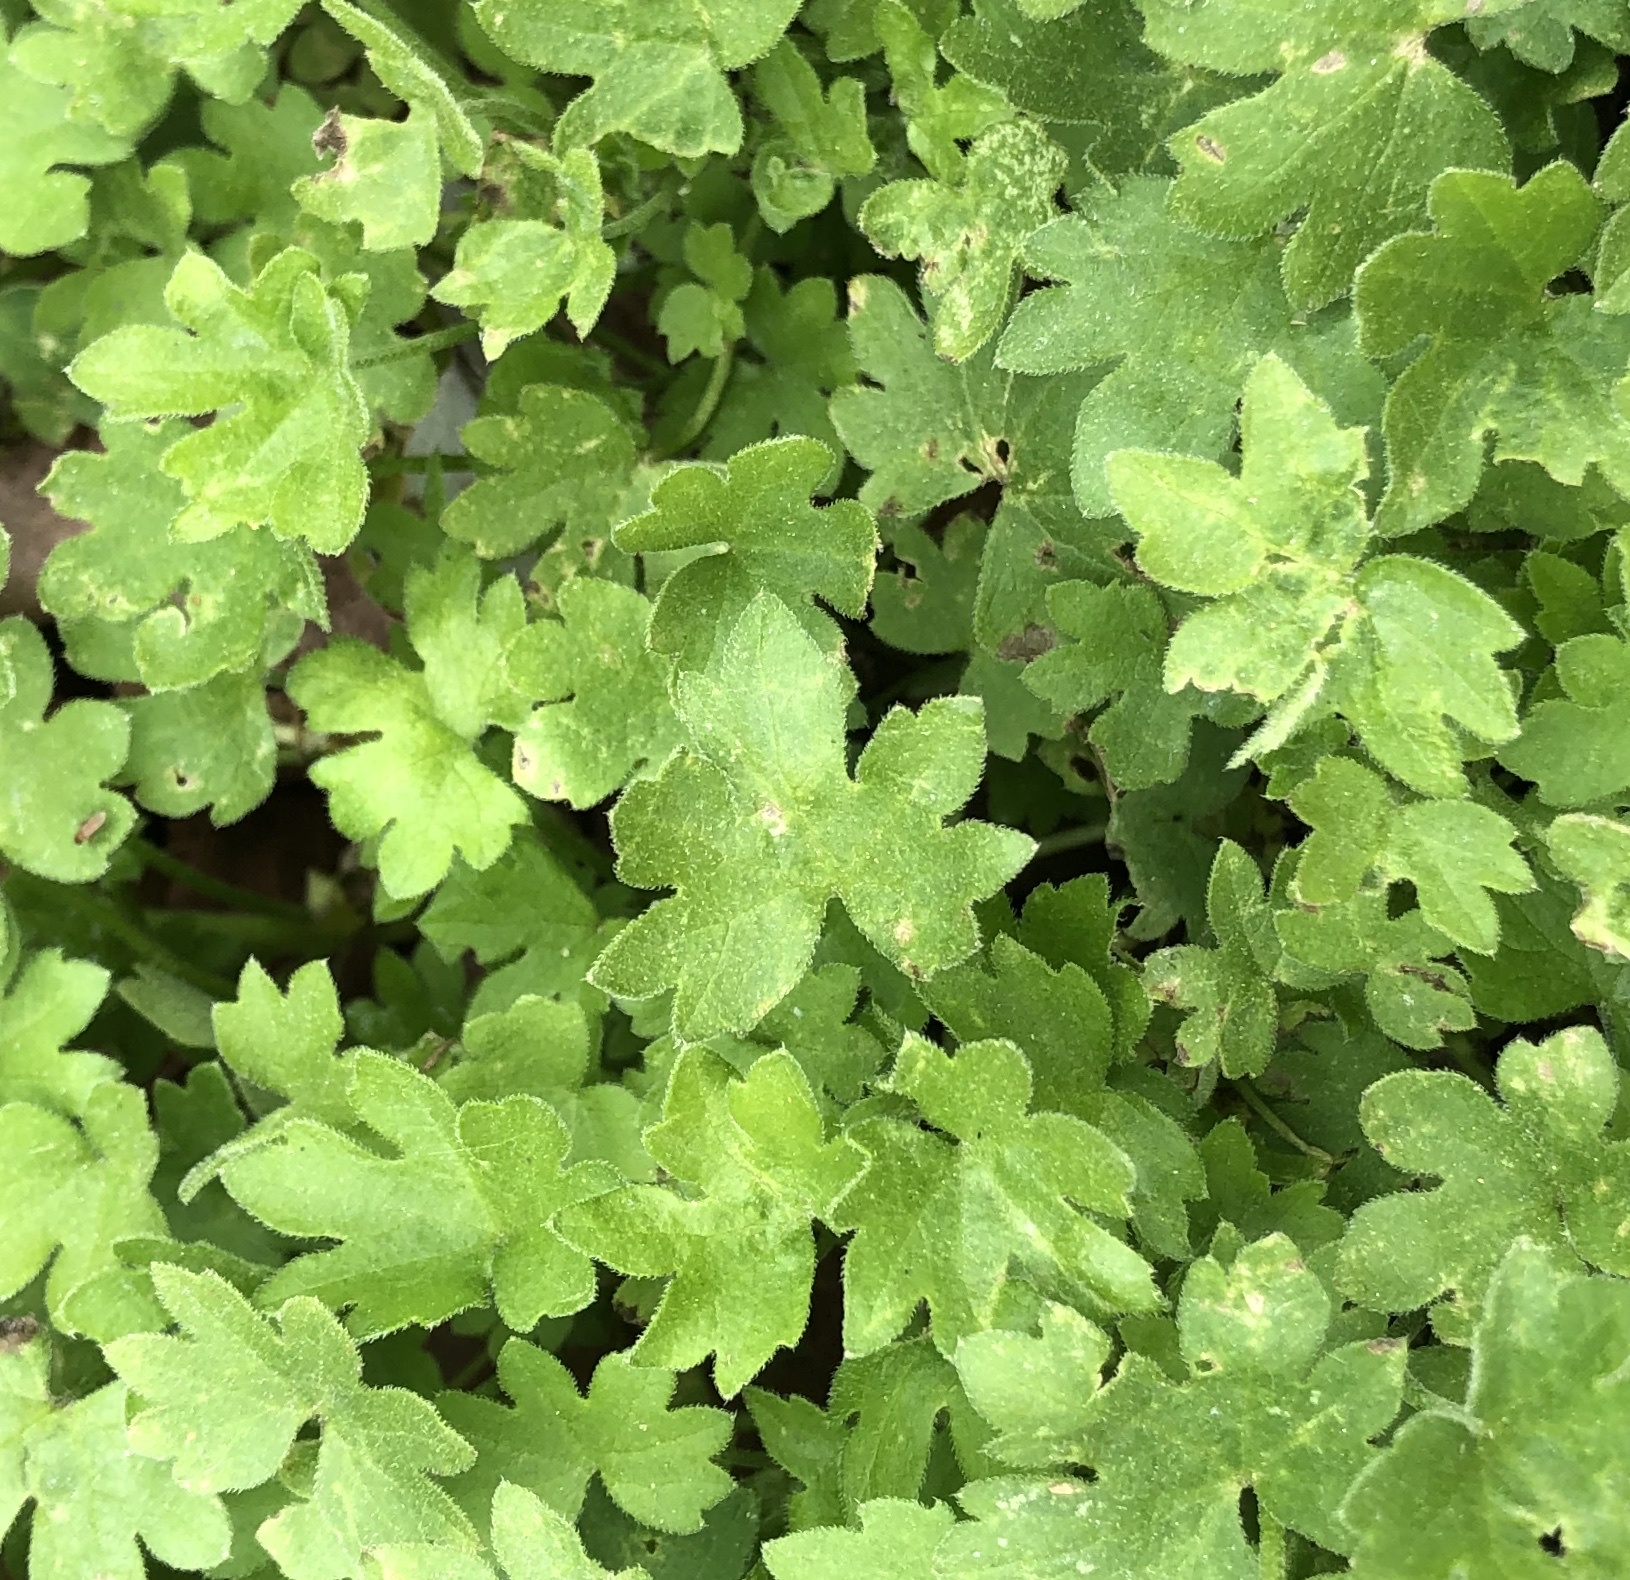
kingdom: Plantae
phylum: Tracheophyta
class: Magnoliopsida
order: Apiales
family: Apiaceae
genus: Bowlesia
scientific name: Bowlesia incana
